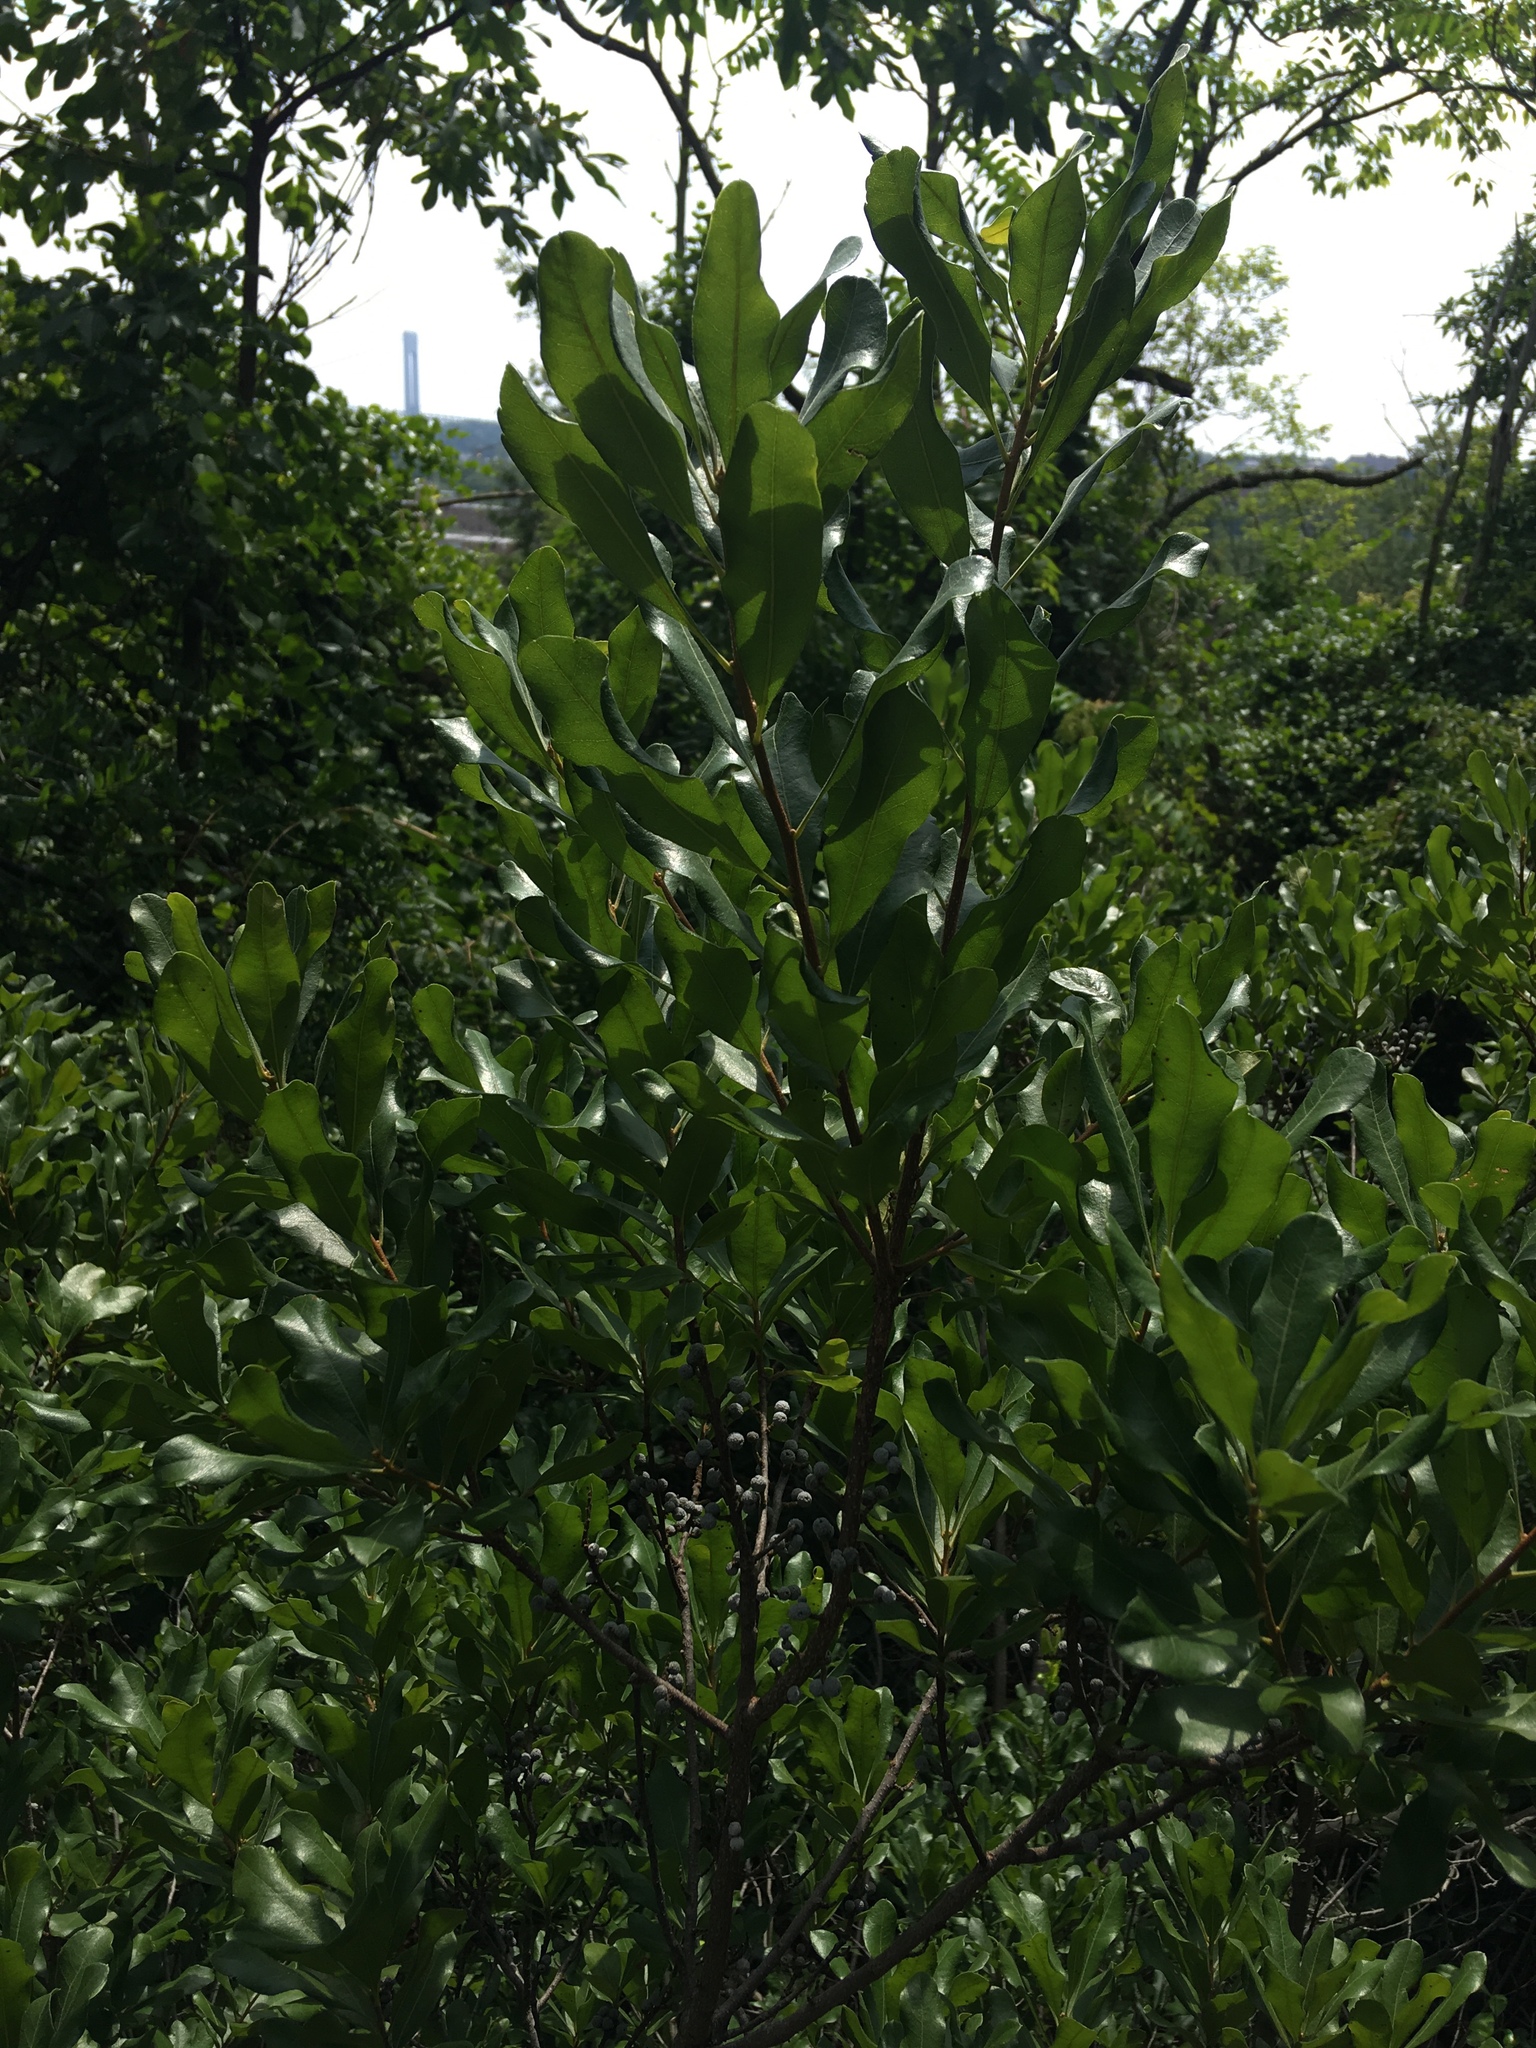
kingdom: Plantae
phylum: Tracheophyta
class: Magnoliopsida
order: Fagales
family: Myricaceae
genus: Morella
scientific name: Morella pensylvanica
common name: Northern bayberry
